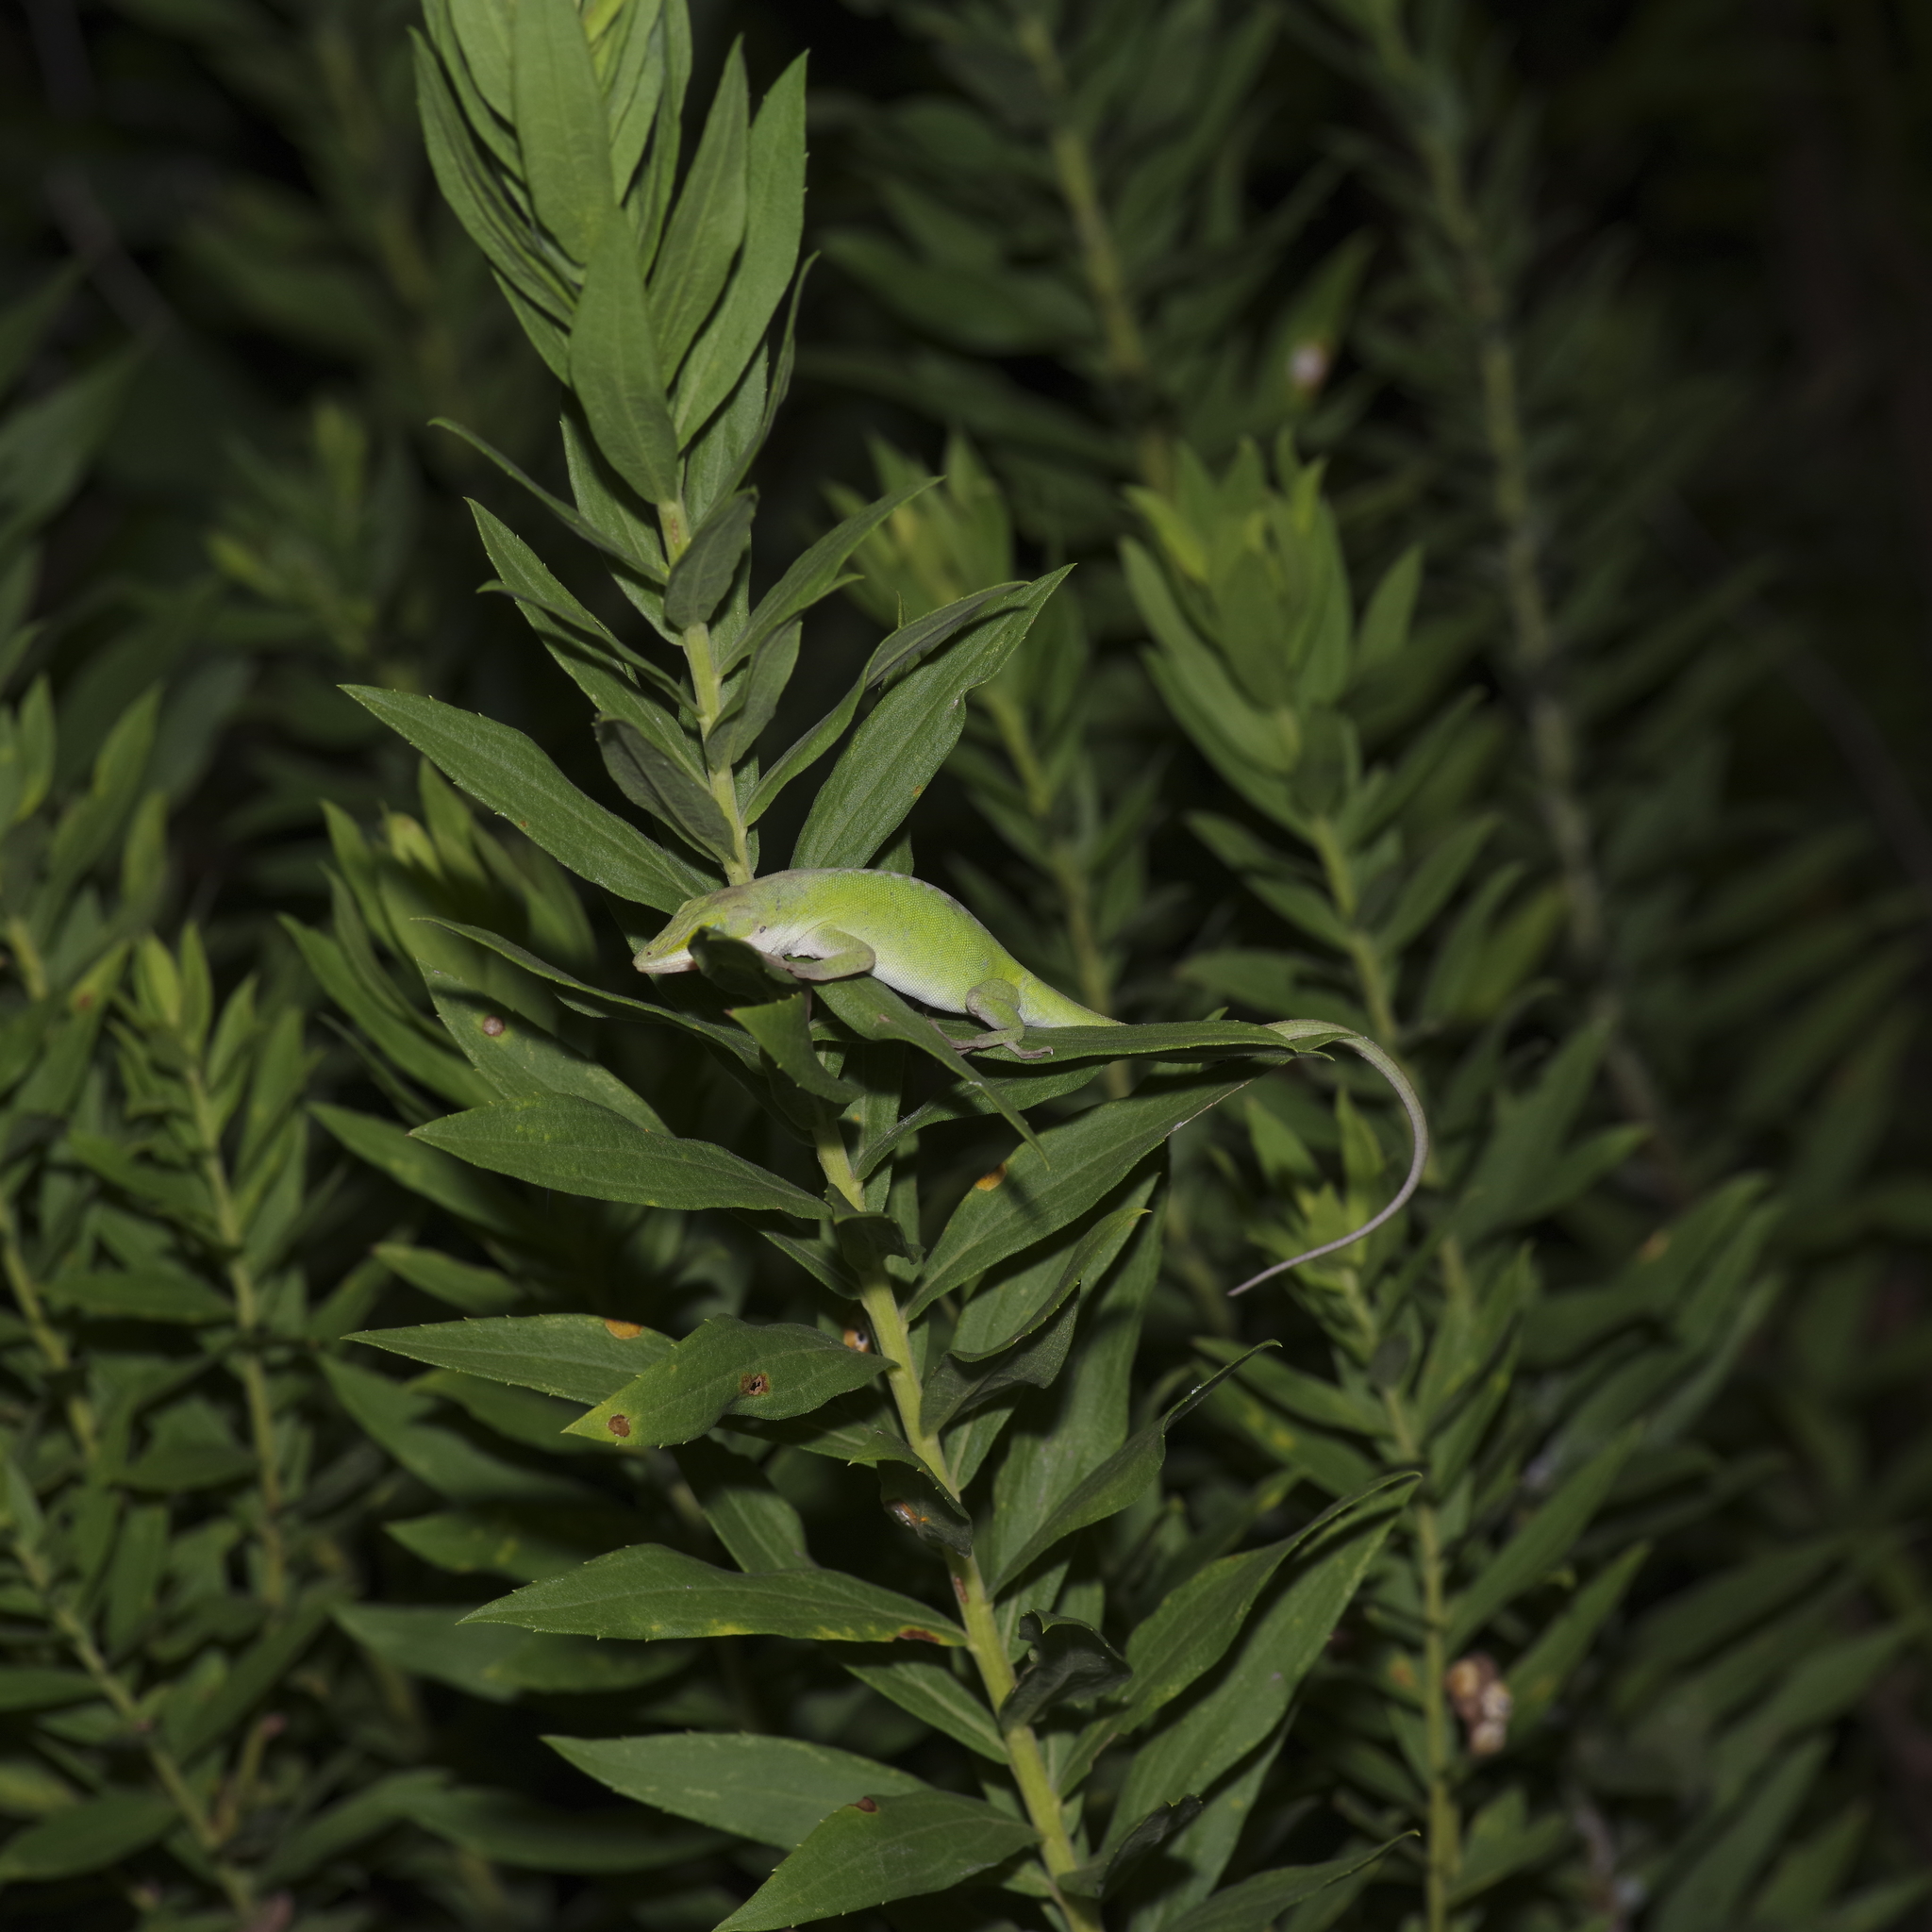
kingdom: Animalia
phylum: Chordata
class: Squamata
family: Dactyloidae
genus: Anolis
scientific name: Anolis carolinensis
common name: Green anole
